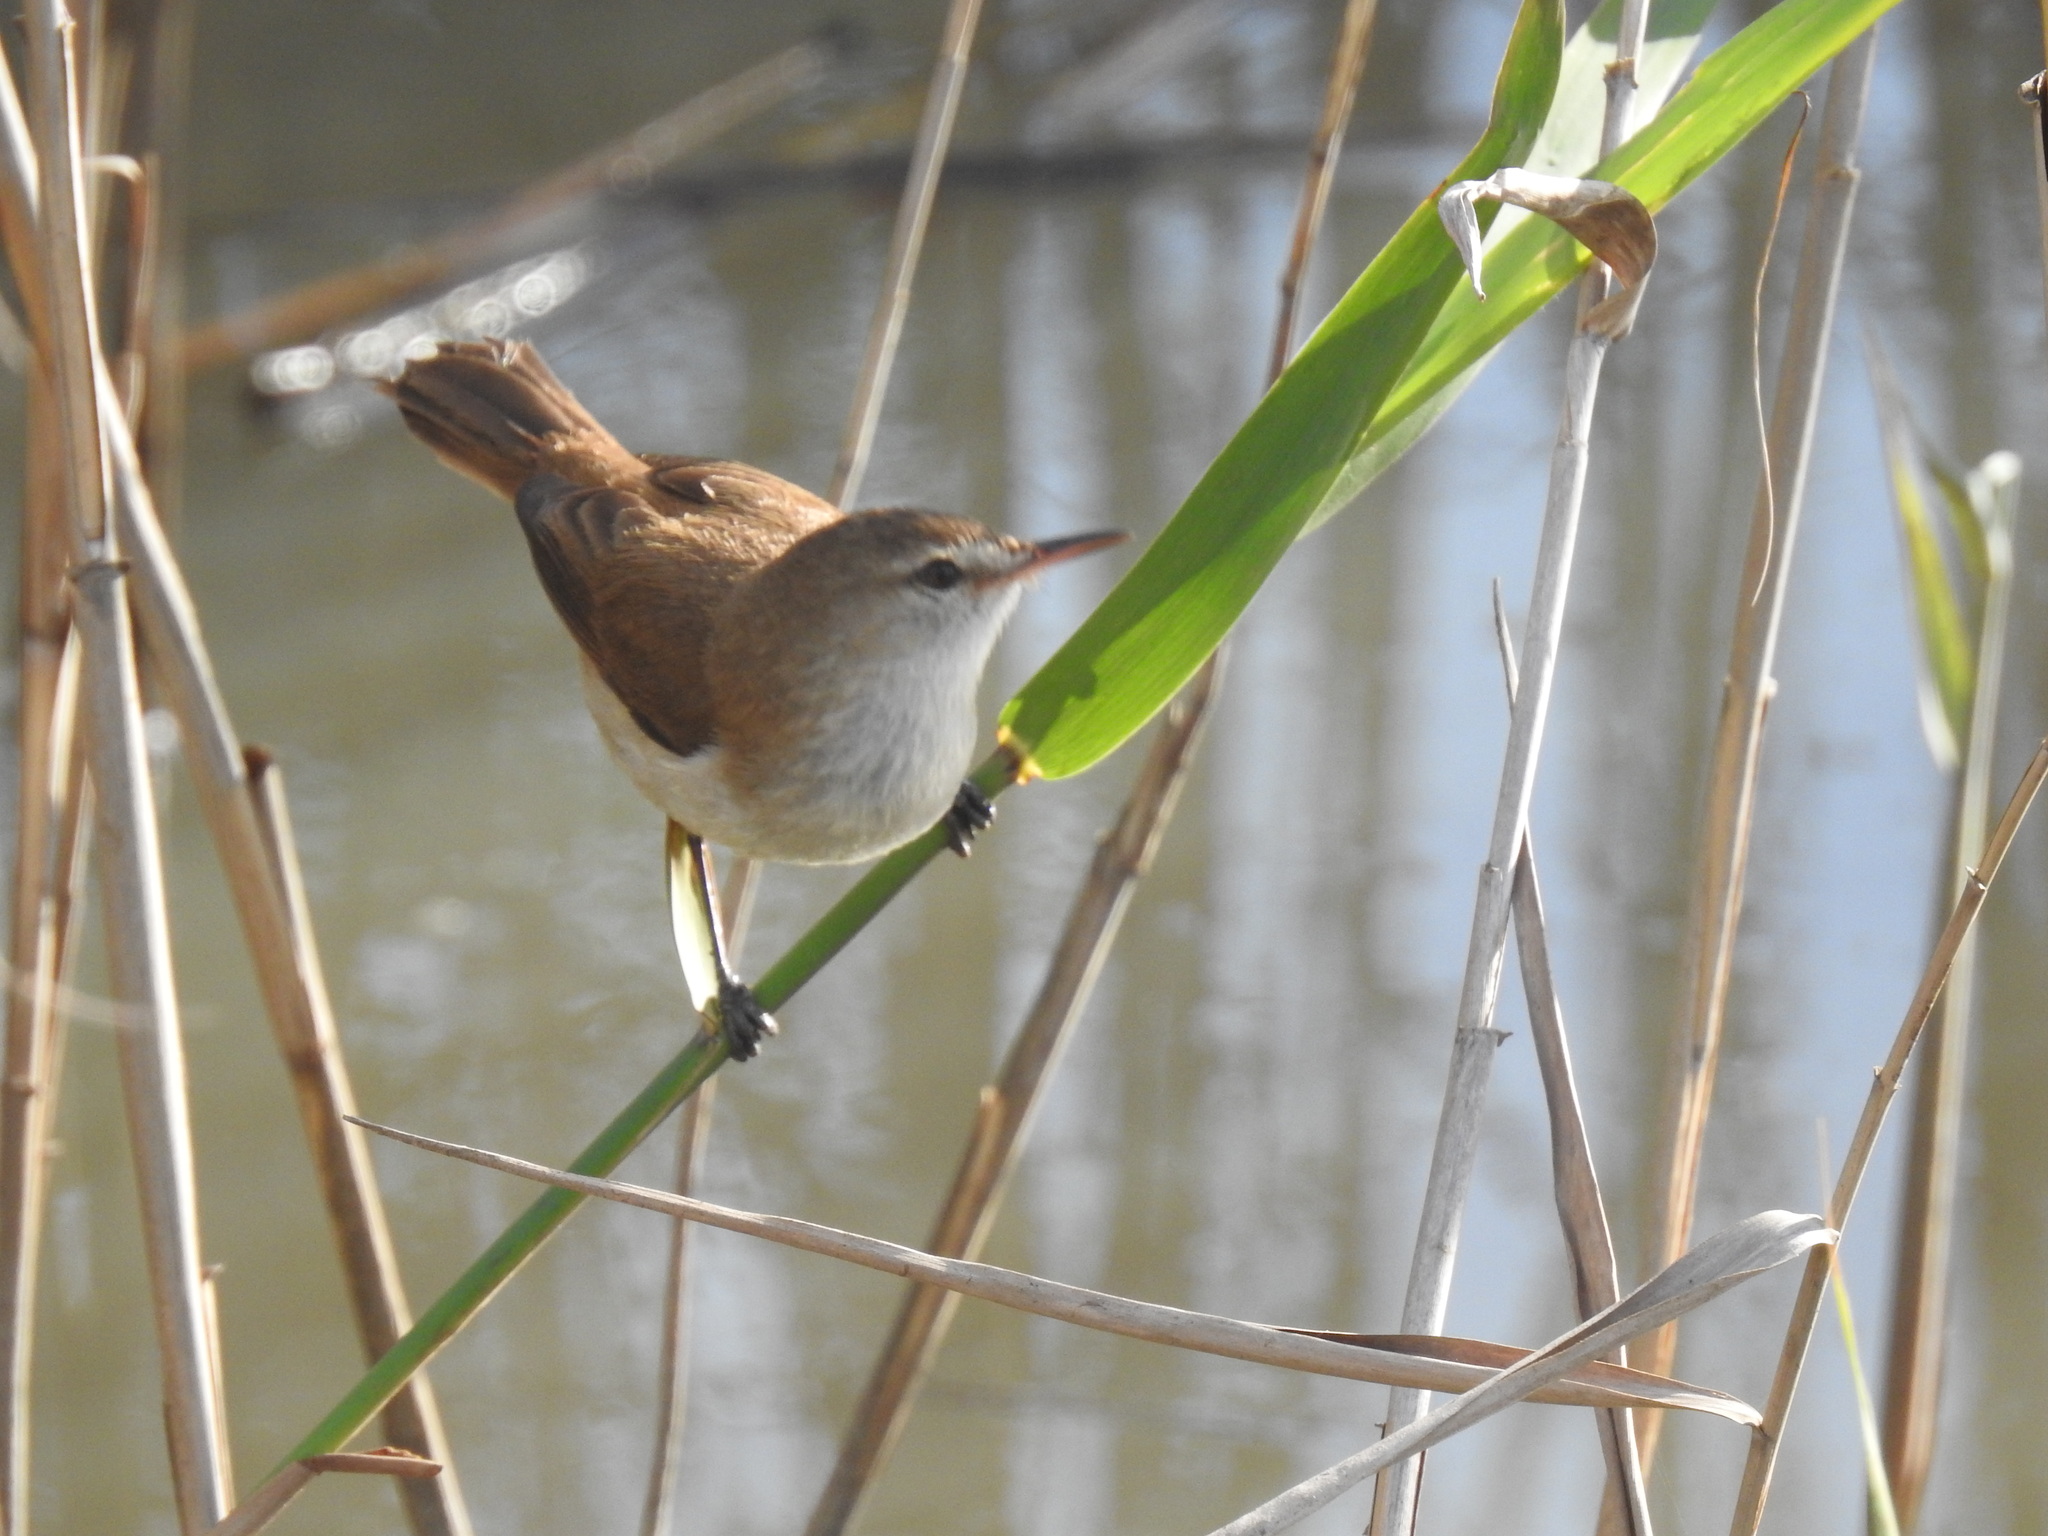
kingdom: Animalia
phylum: Chordata
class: Aves
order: Passeriformes
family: Acrocephalidae
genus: Acrocephalus
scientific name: Acrocephalus gracilirostris
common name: Lesser swamp warbler
